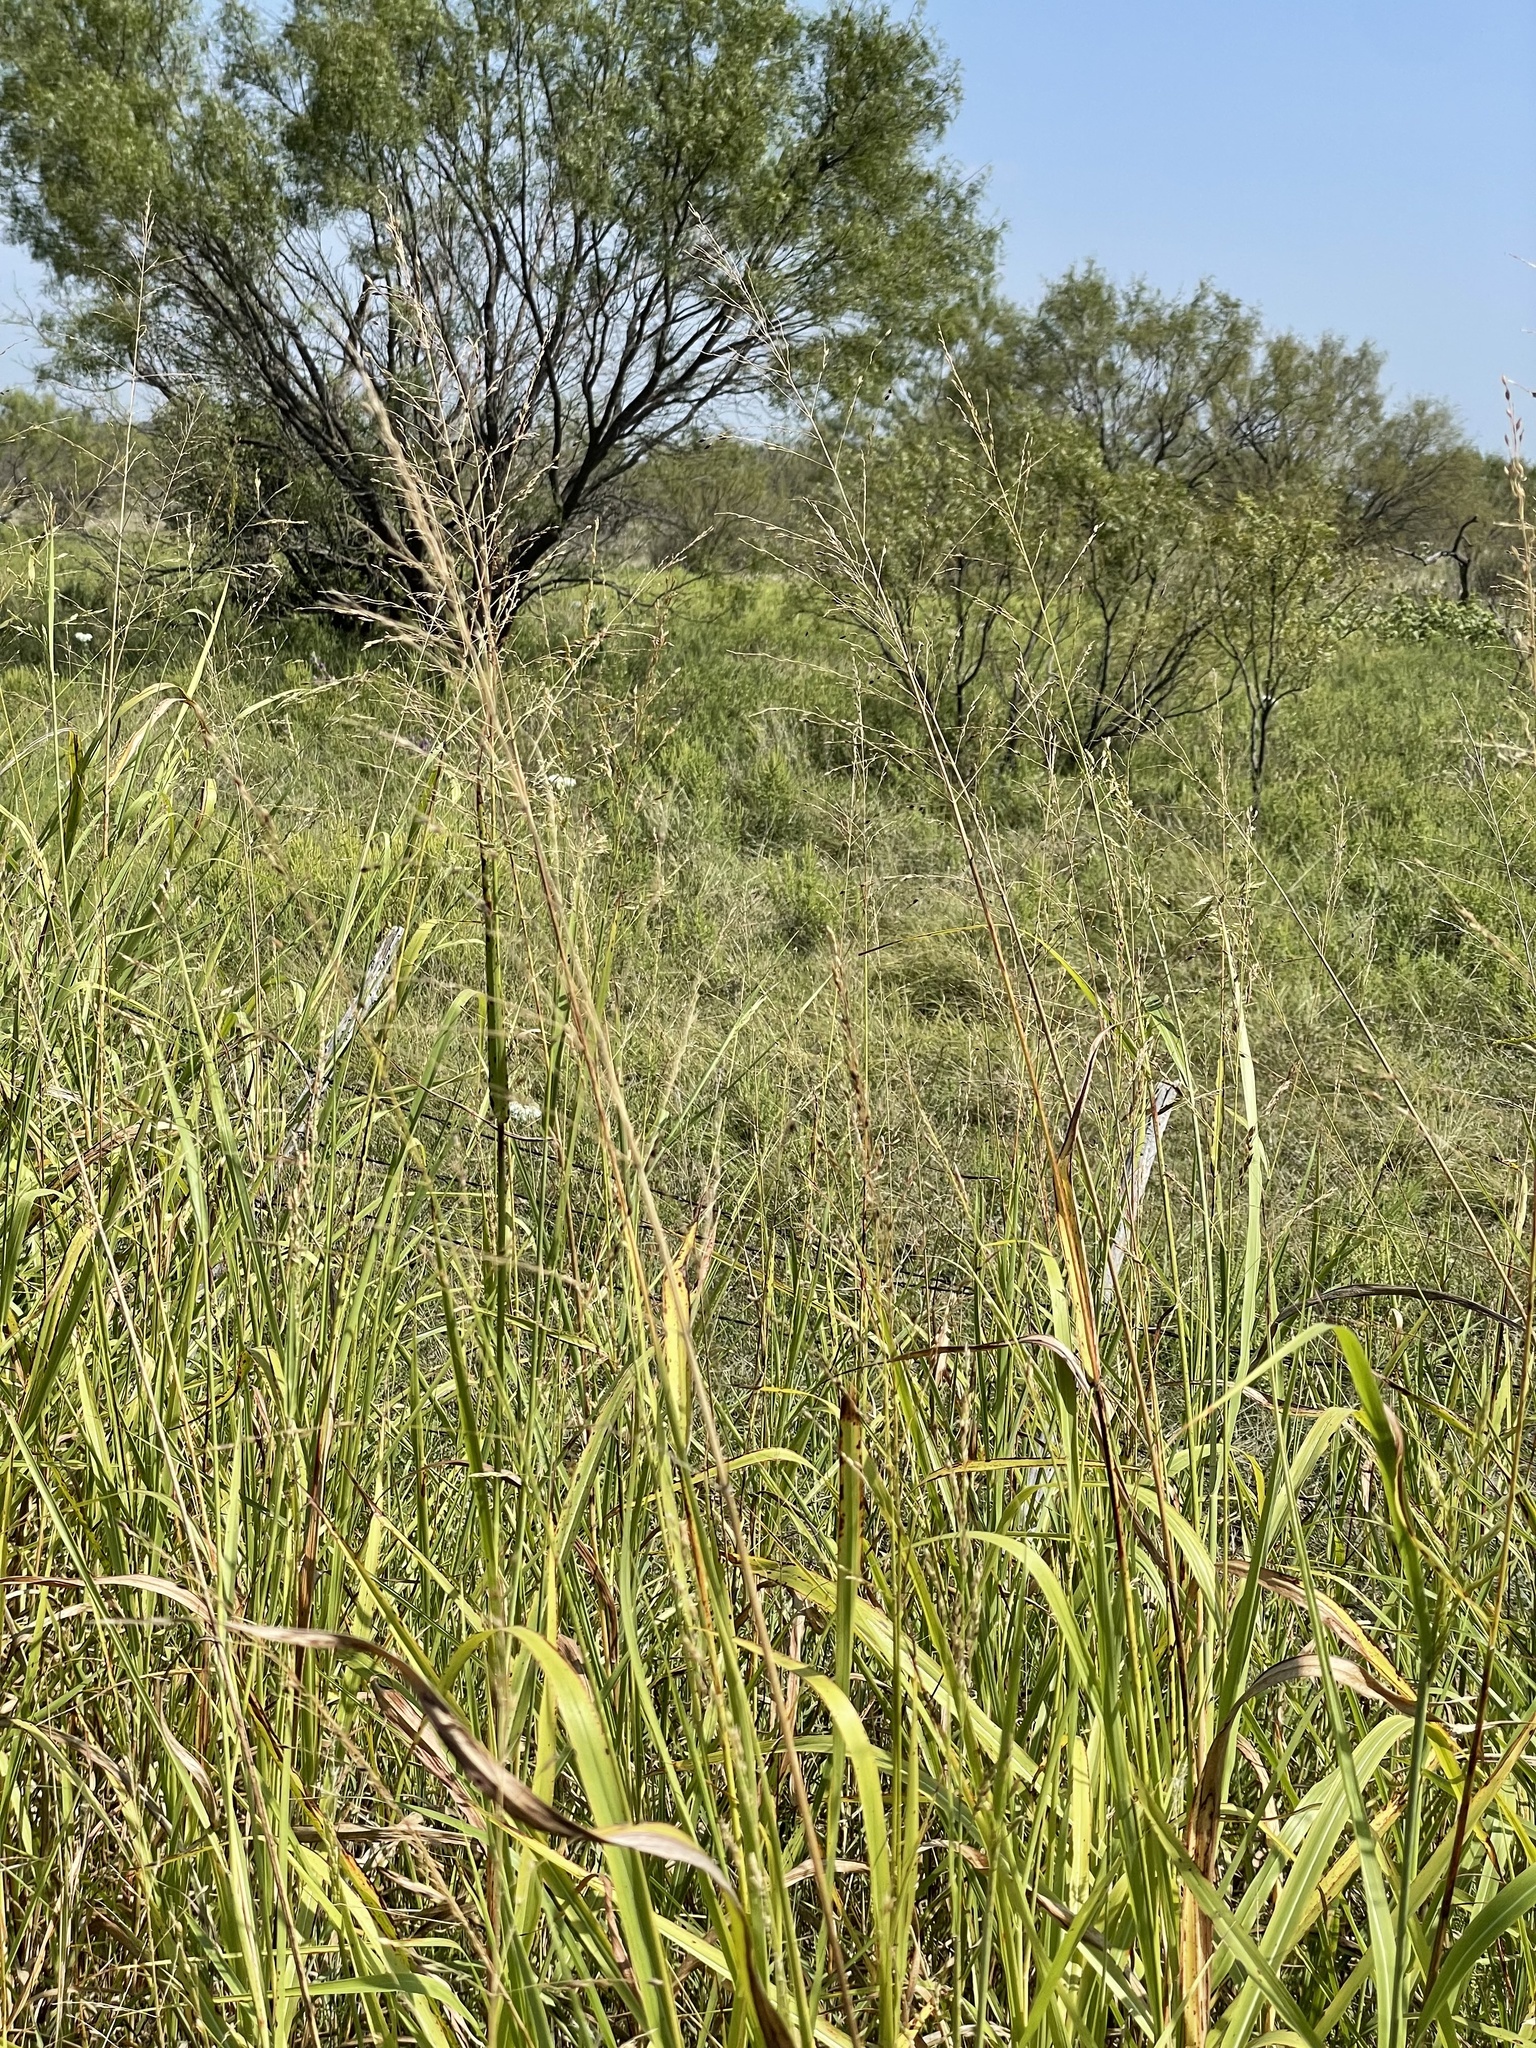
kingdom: Plantae
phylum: Tracheophyta
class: Liliopsida
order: Poales
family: Poaceae
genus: Sorghum
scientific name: Sorghum halepense
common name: Johnson-grass
